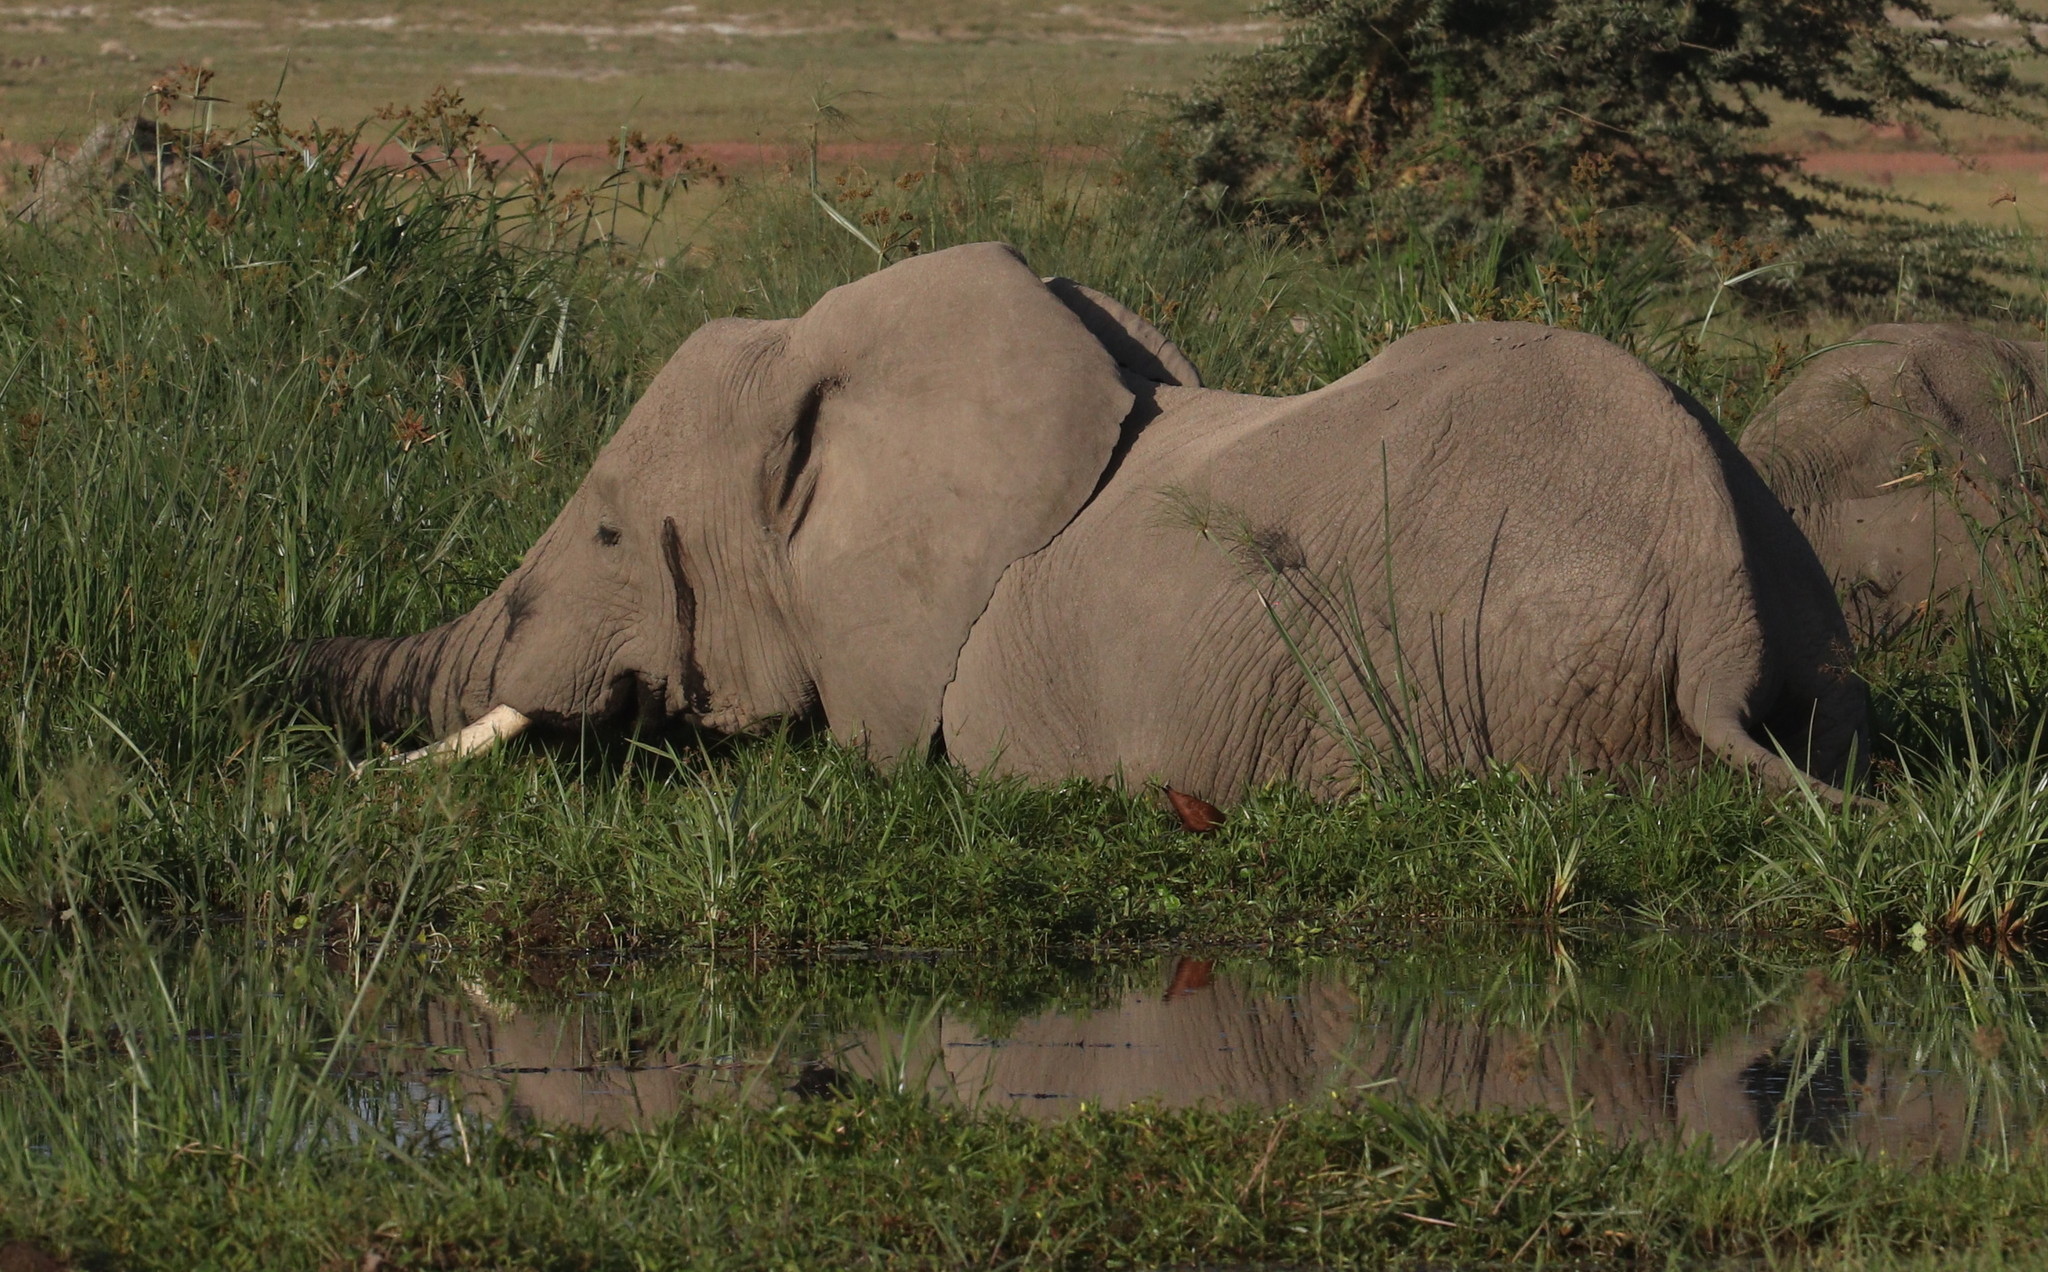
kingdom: Animalia
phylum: Chordata
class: Mammalia
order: Proboscidea
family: Elephantidae
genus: Loxodonta
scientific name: Loxodonta africana
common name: African elephant
